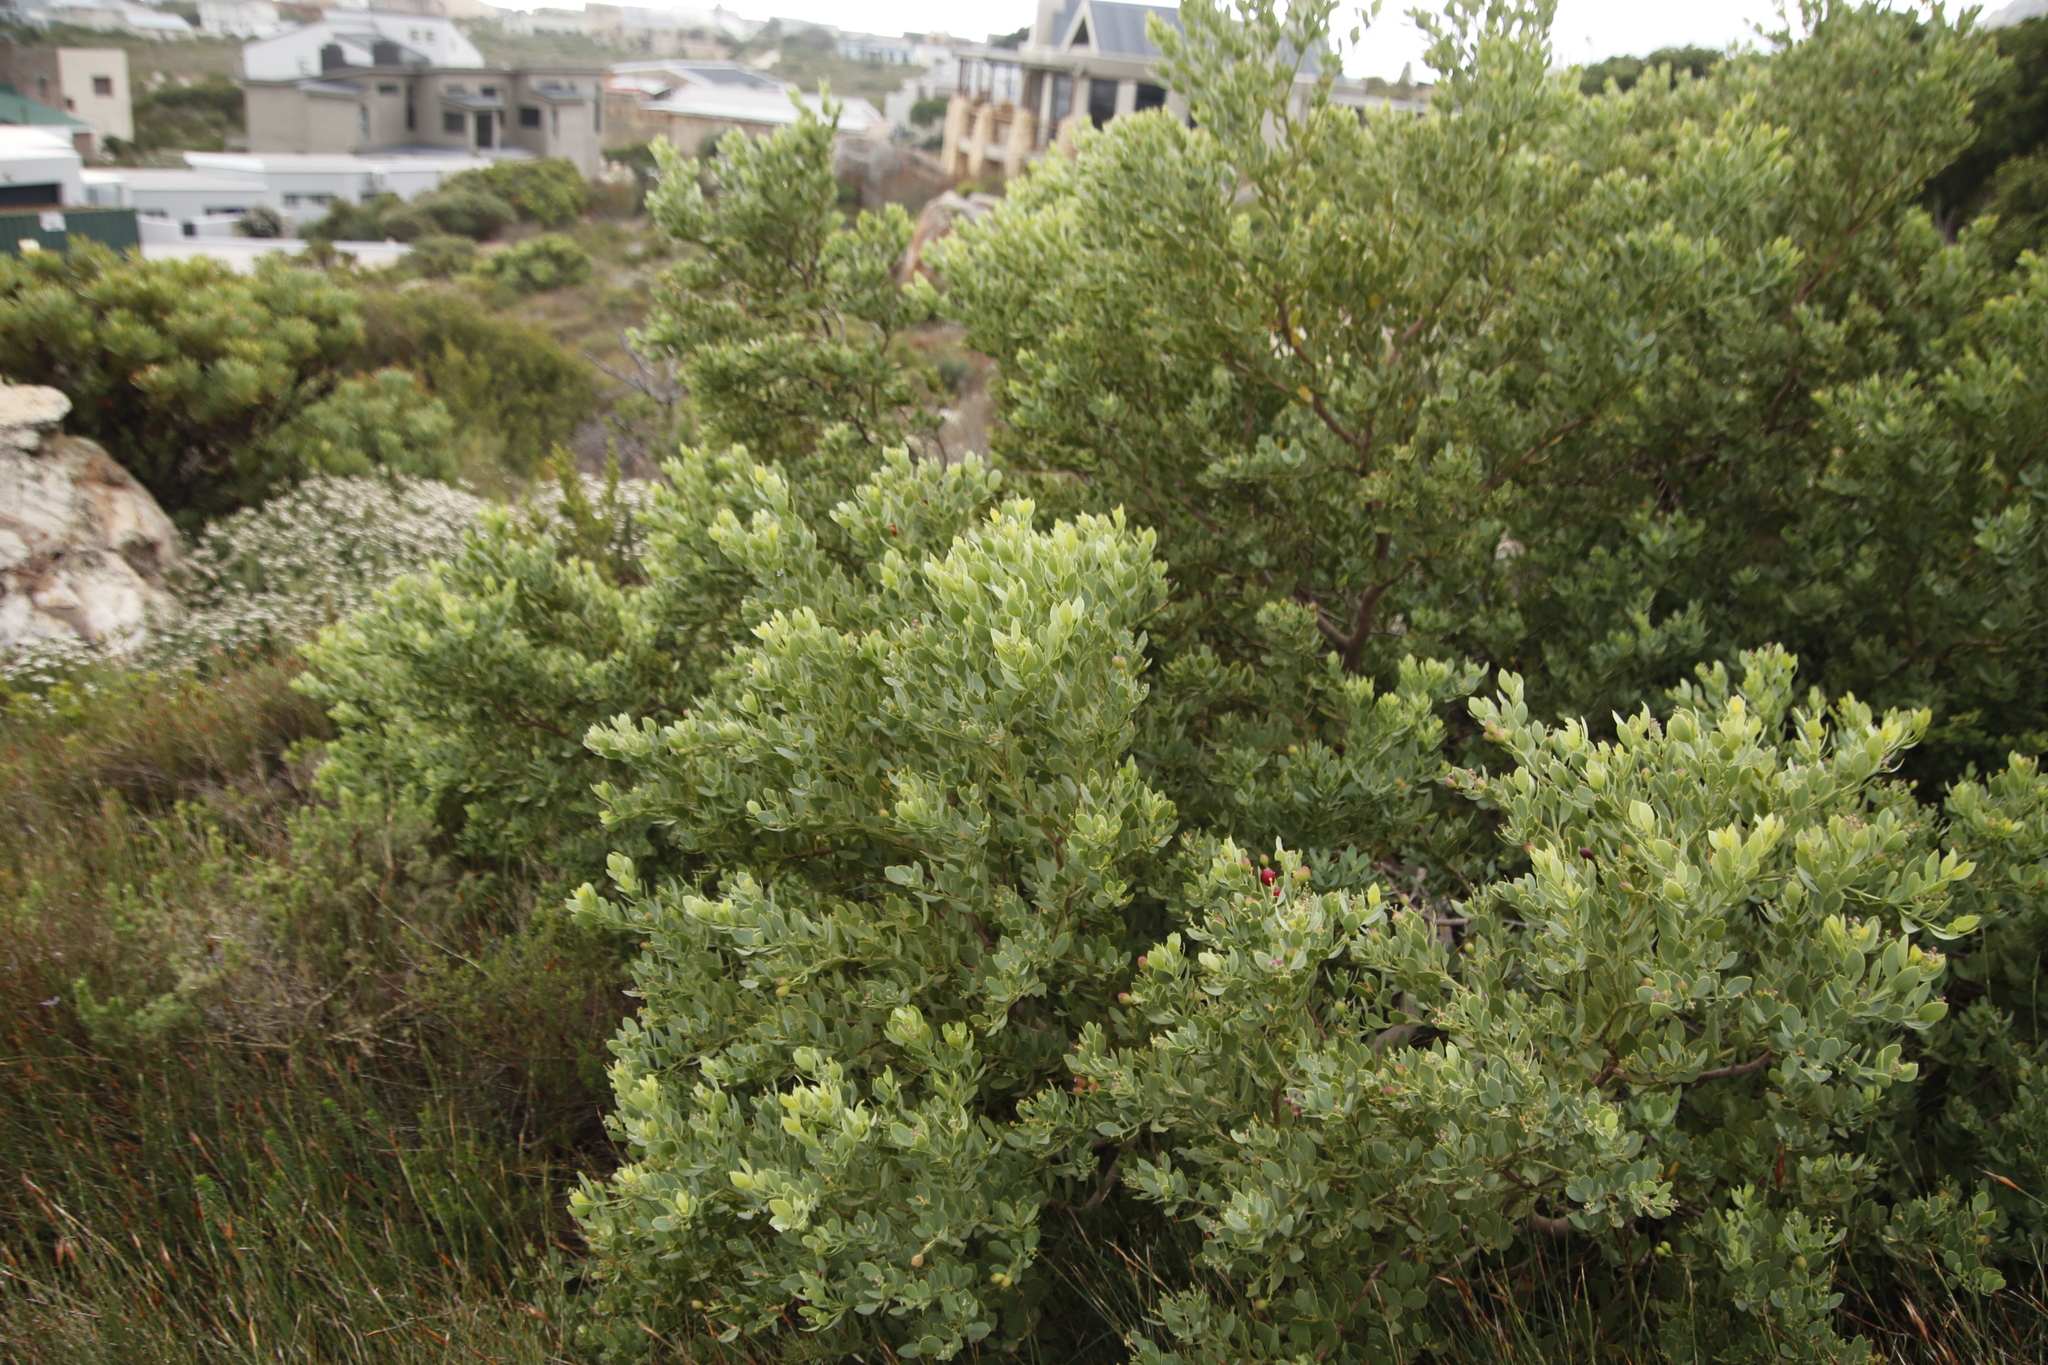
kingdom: Plantae
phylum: Tracheophyta
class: Magnoliopsida
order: Santalales
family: Santalaceae
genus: Osyris
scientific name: Osyris compressa
